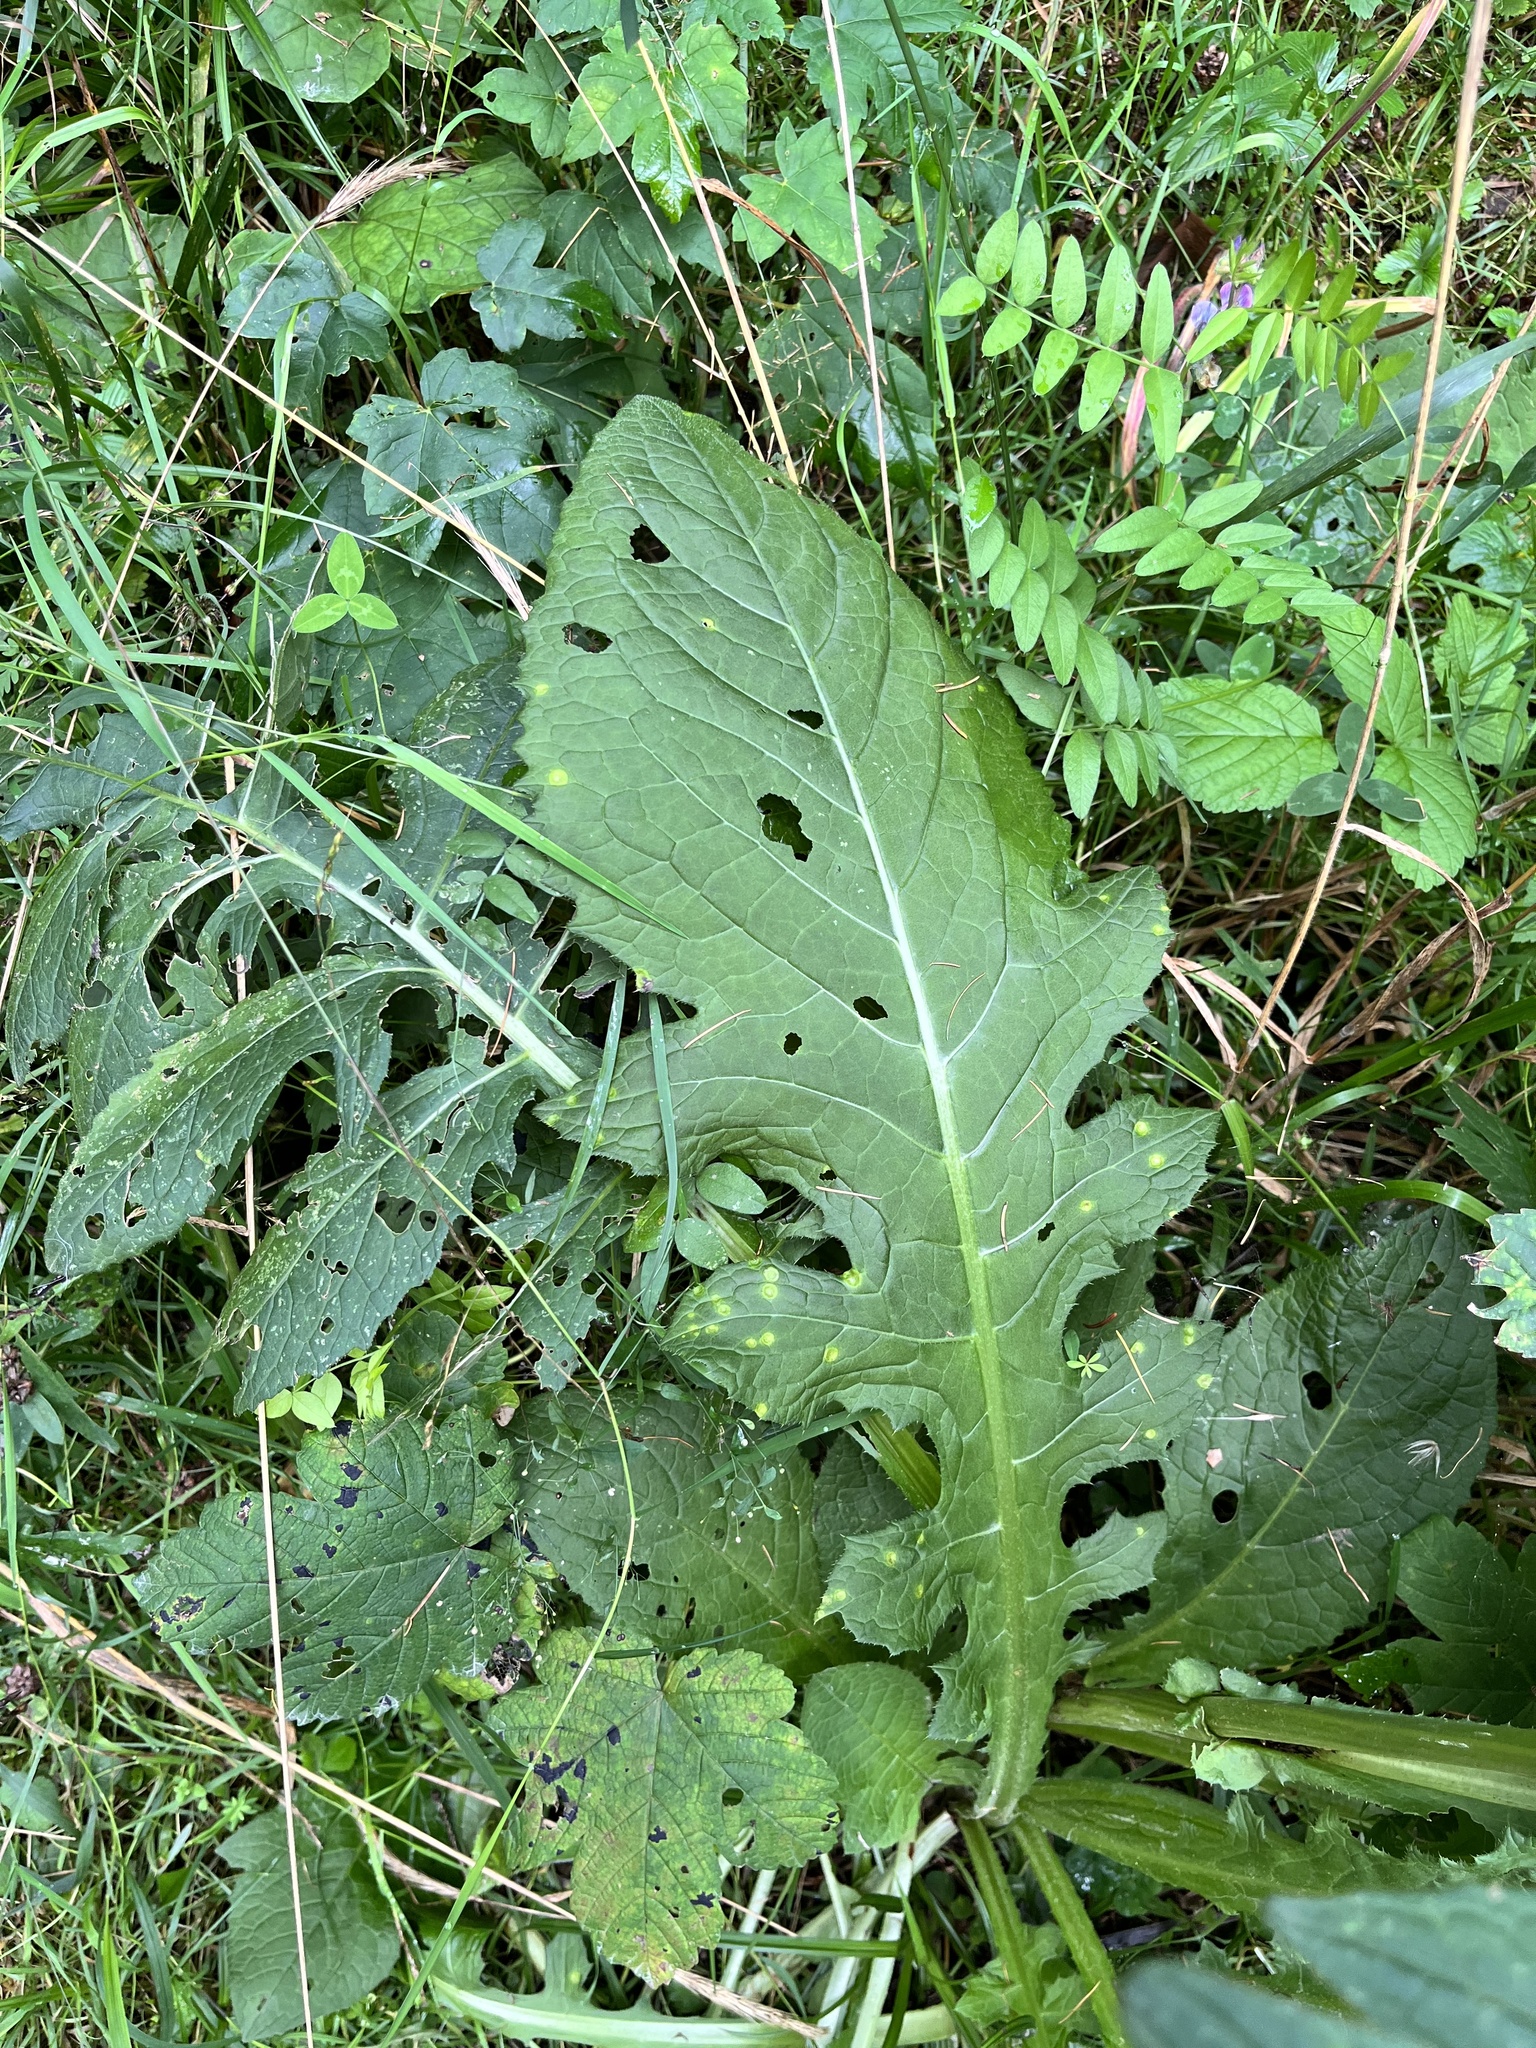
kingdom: Plantae
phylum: Tracheophyta
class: Magnoliopsida
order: Asterales
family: Asteraceae
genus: Cirsium
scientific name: Cirsium oleraceum
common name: Cabbage thistle
